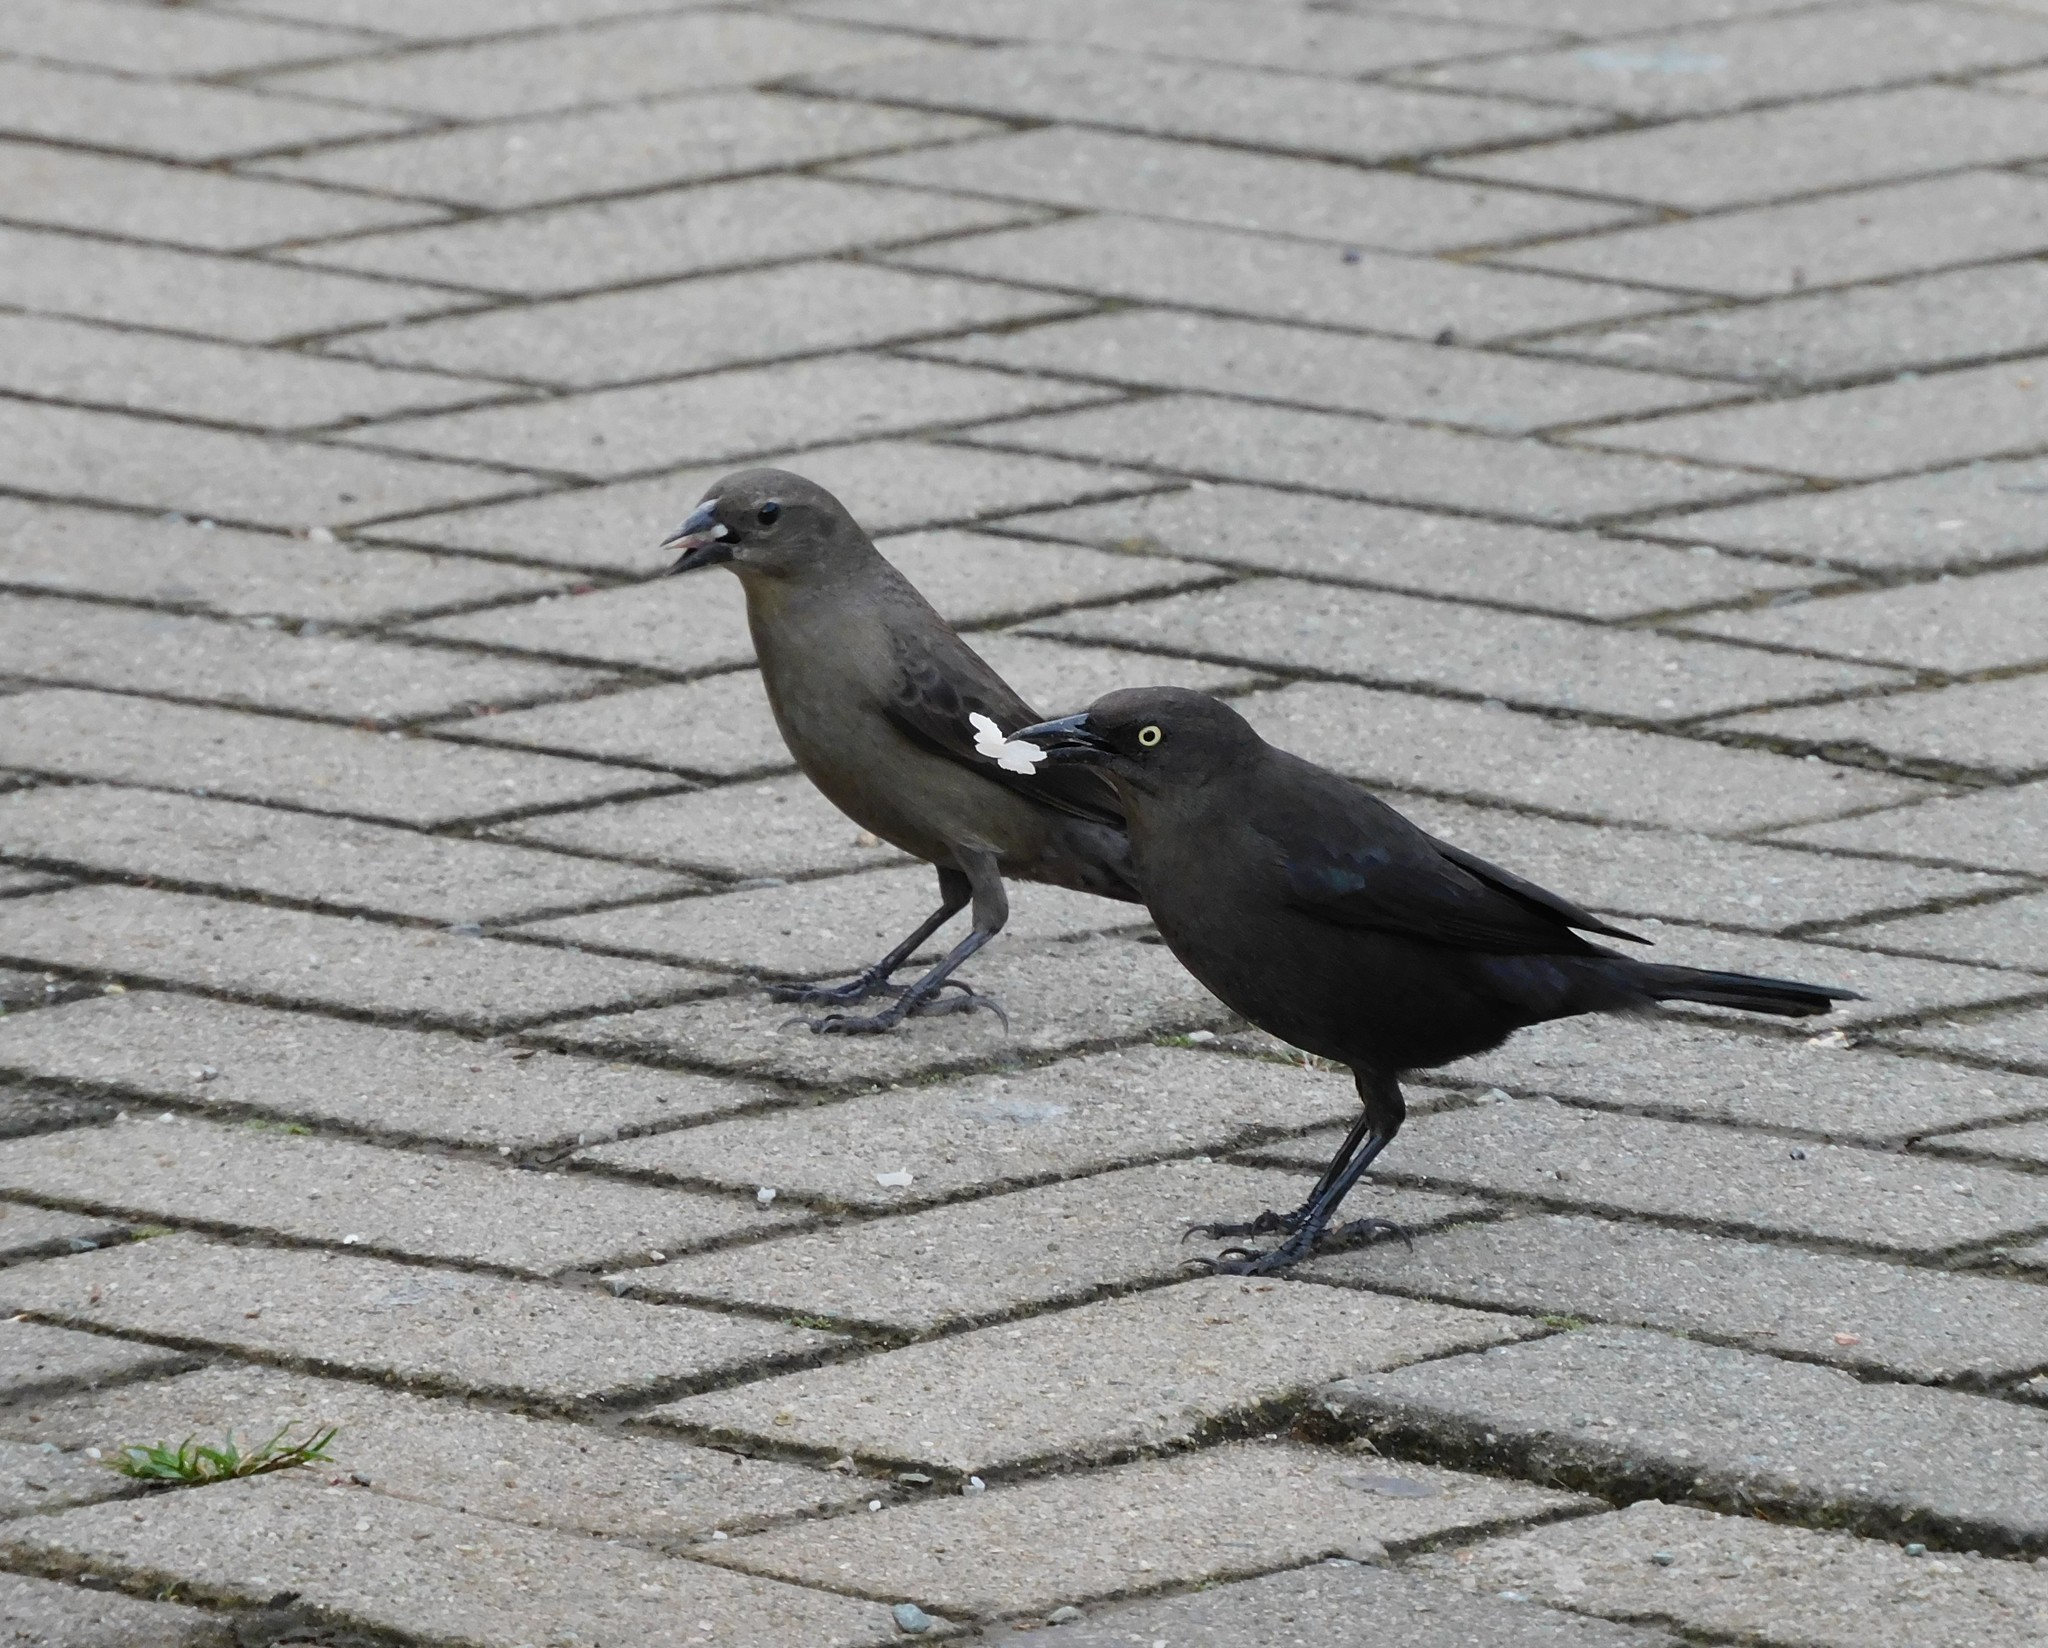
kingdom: Animalia
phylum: Chordata
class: Aves
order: Passeriformes
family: Icteridae
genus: Quiscalus
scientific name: Quiscalus lugubris
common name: Carib grackle
